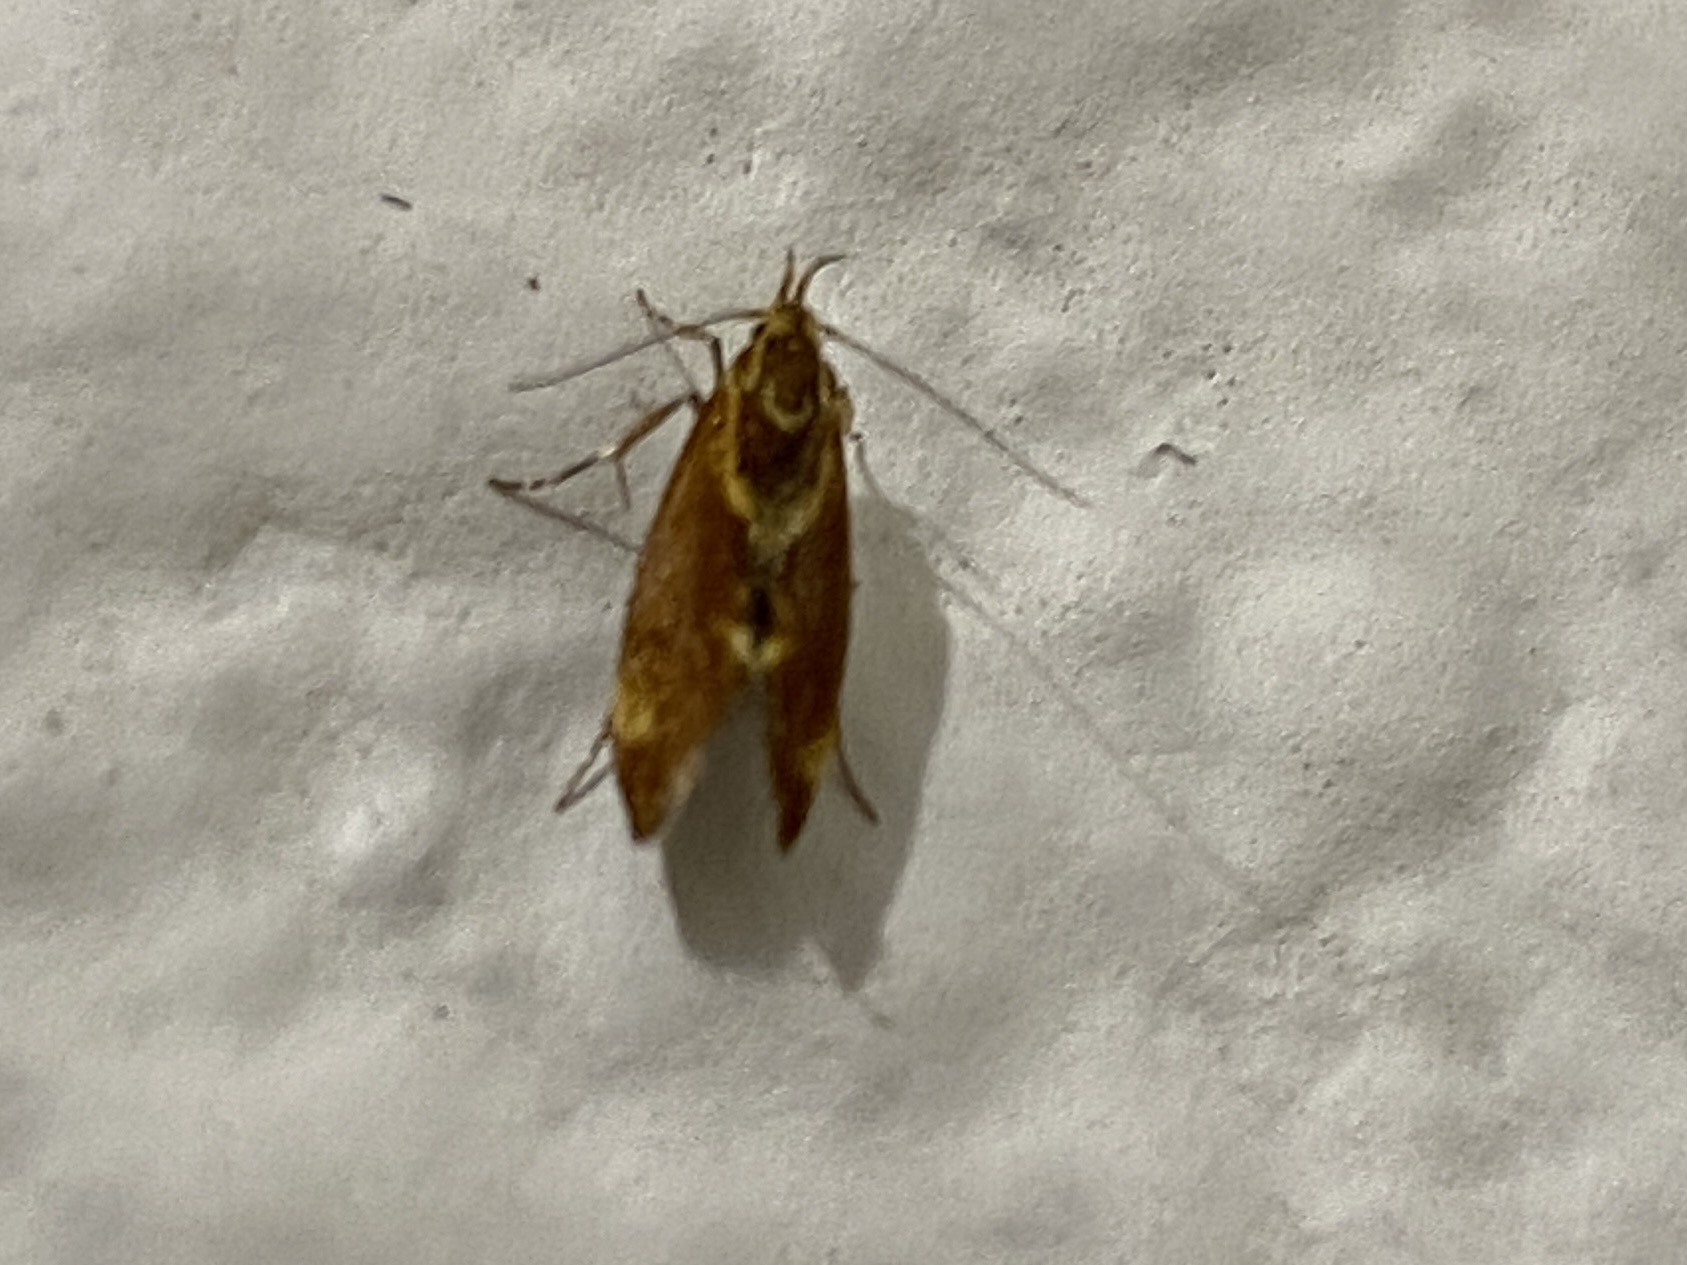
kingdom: Animalia
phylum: Arthropoda
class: Insecta
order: Lepidoptera
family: Oecophoridae
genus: Borkhausenia
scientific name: Borkhausenia italica
